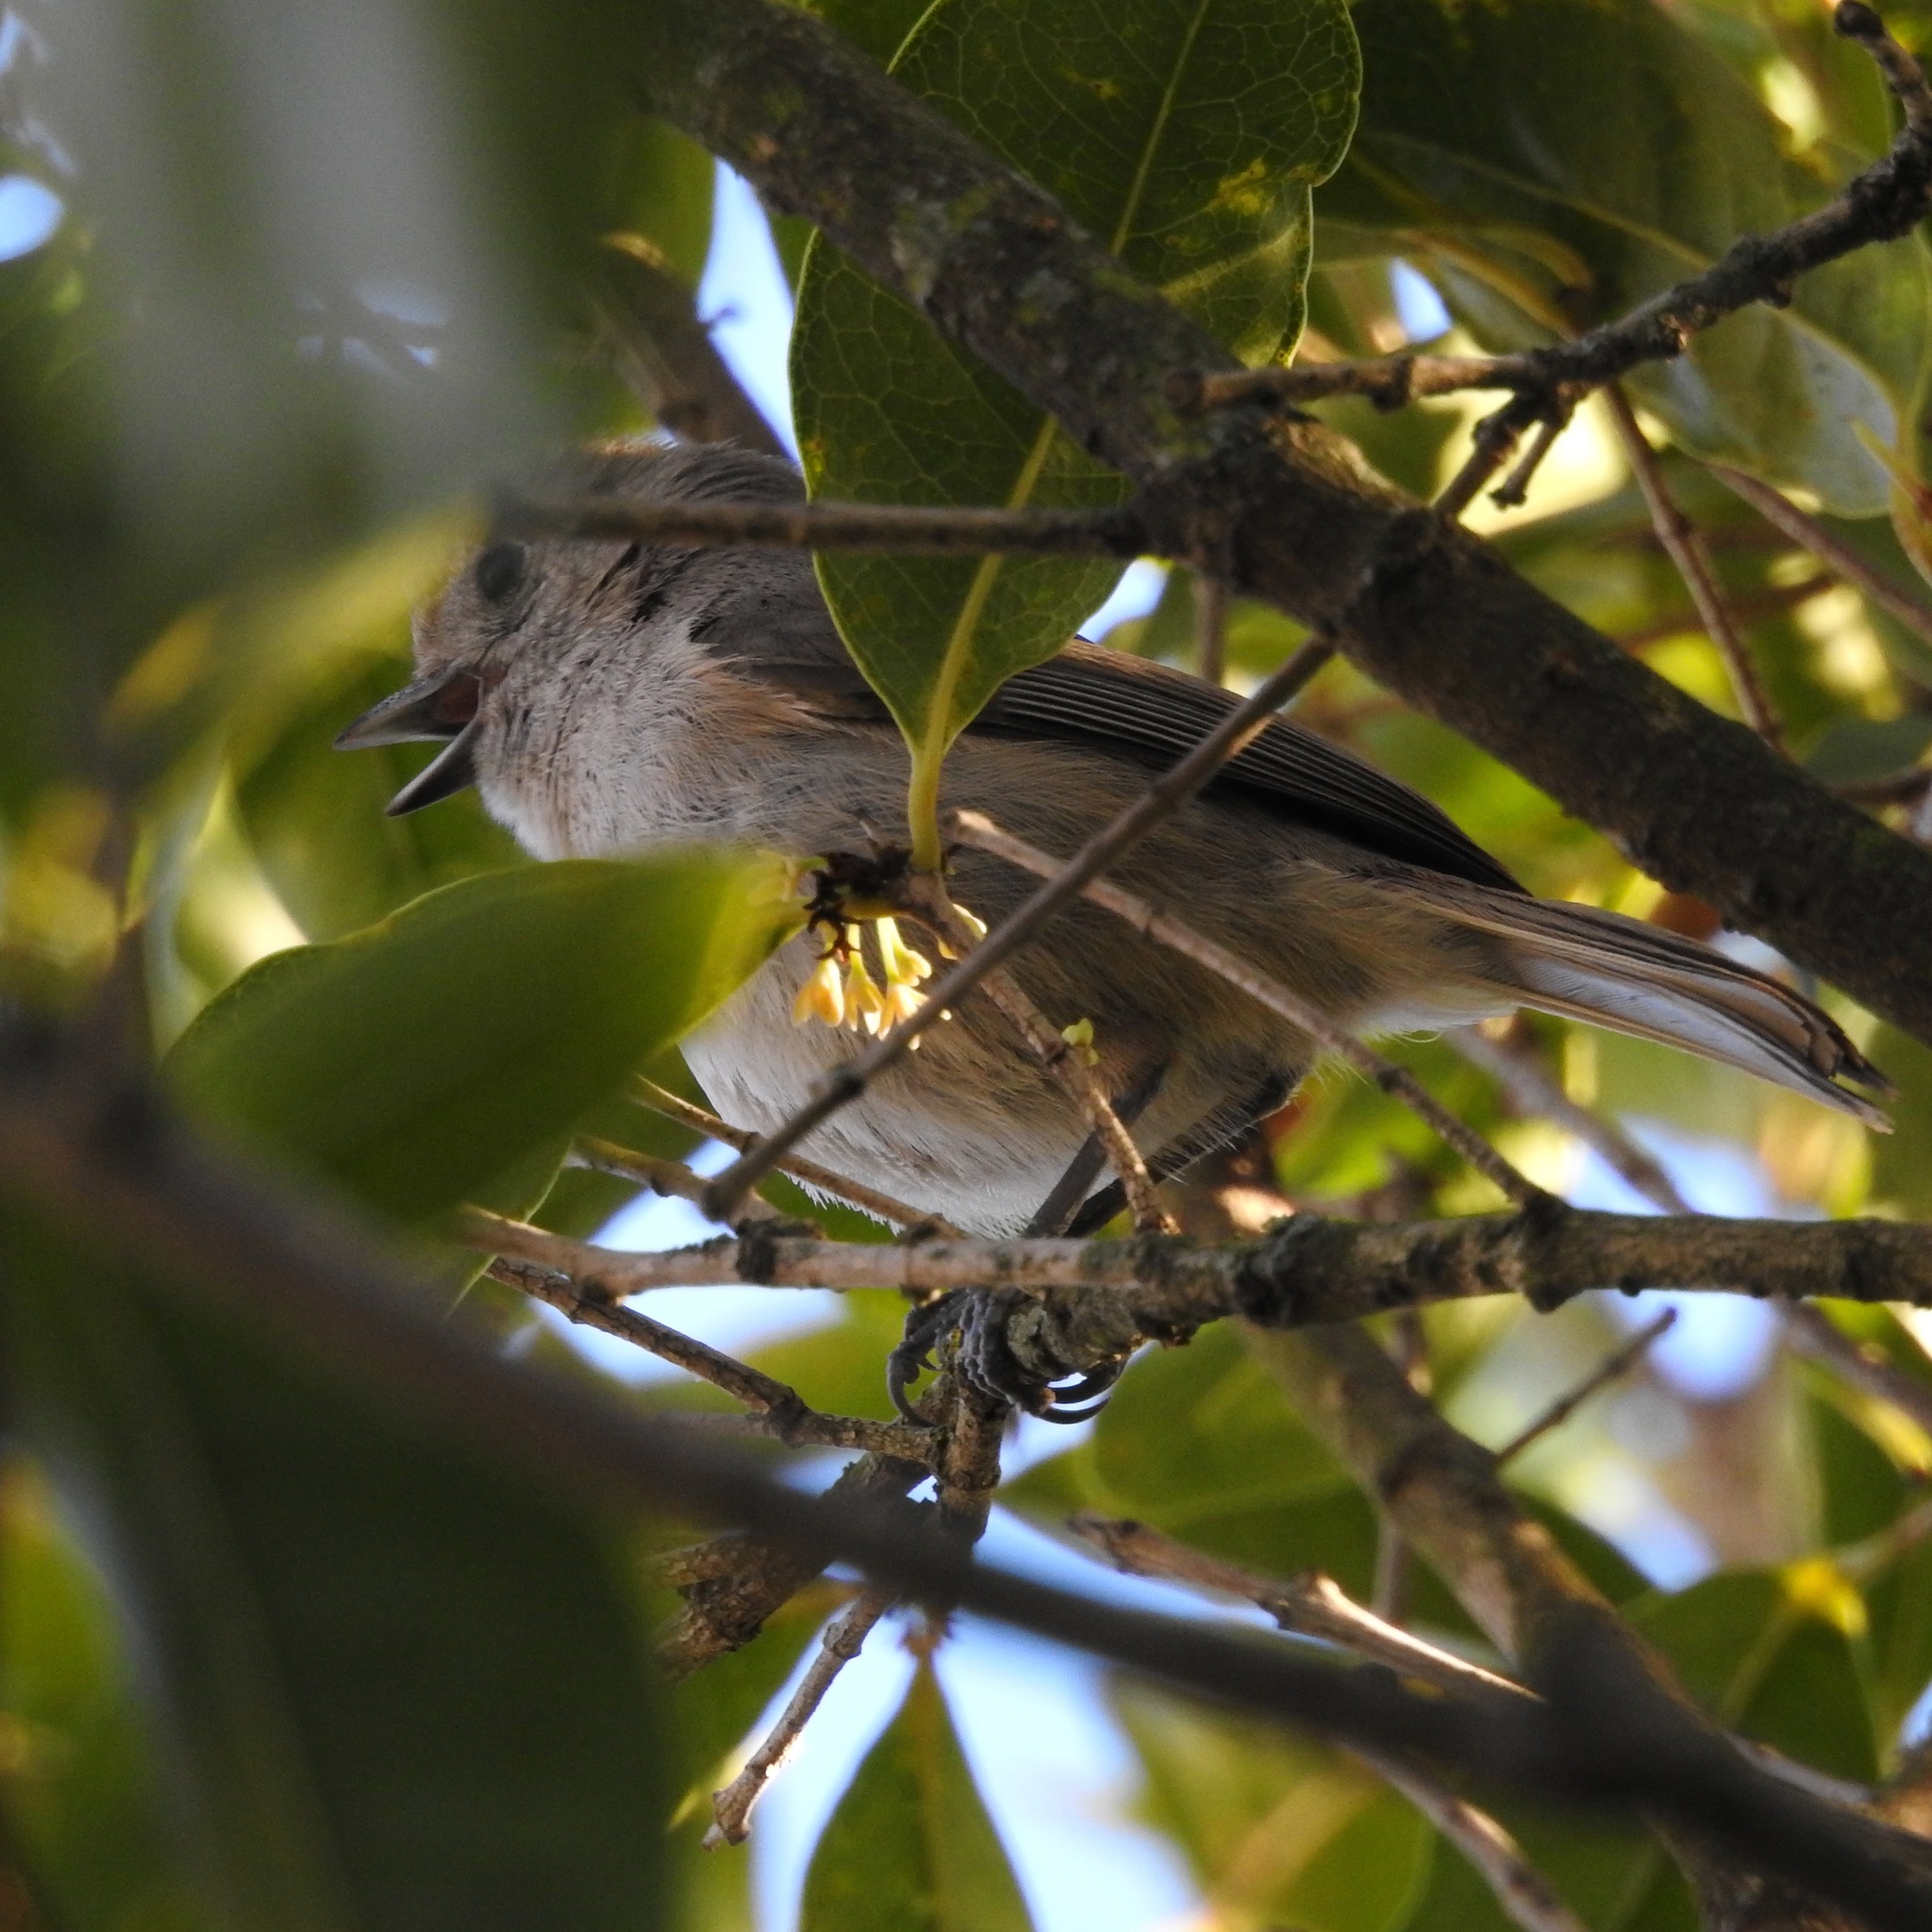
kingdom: Animalia
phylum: Chordata
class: Aves
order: Passeriformes
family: Paridae
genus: Baeolophus
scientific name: Baeolophus inornatus
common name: Oak titmouse
